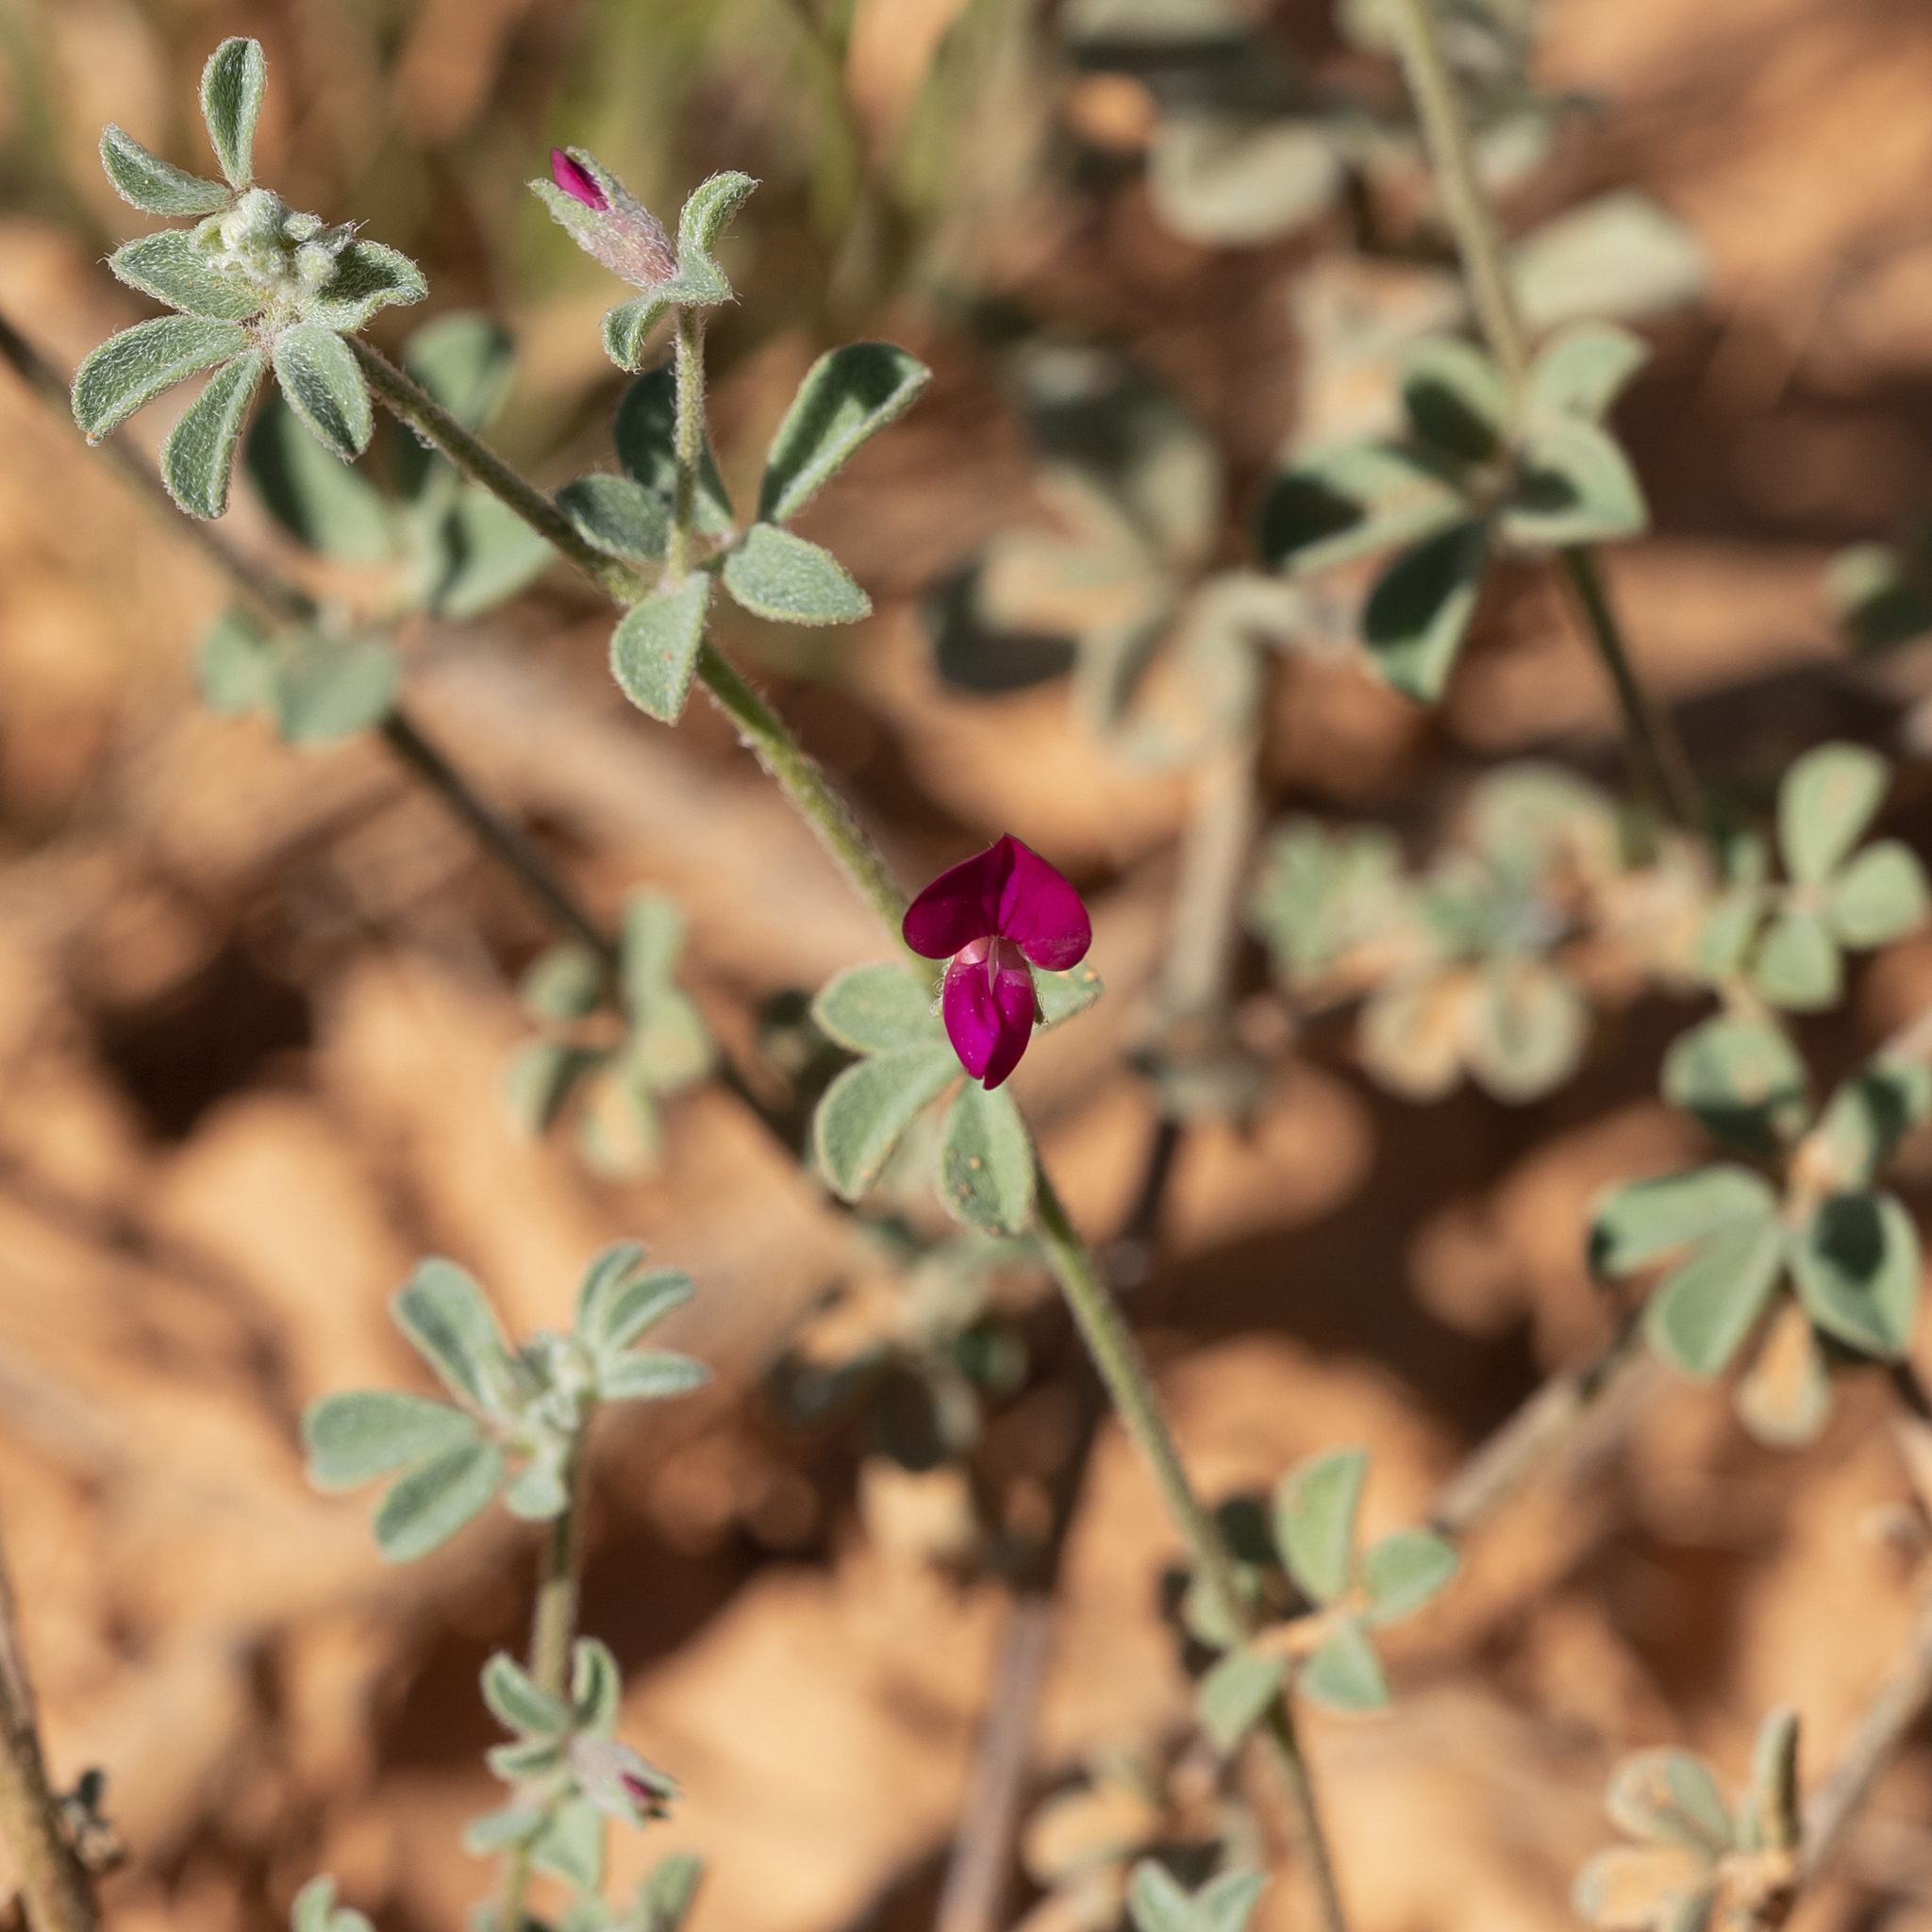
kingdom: Plantae
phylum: Tracheophyta
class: Magnoliopsida
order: Fabales
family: Fabaceae
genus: Lotus
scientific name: Lotus cruentus
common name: Red bird's-foot trefoil
